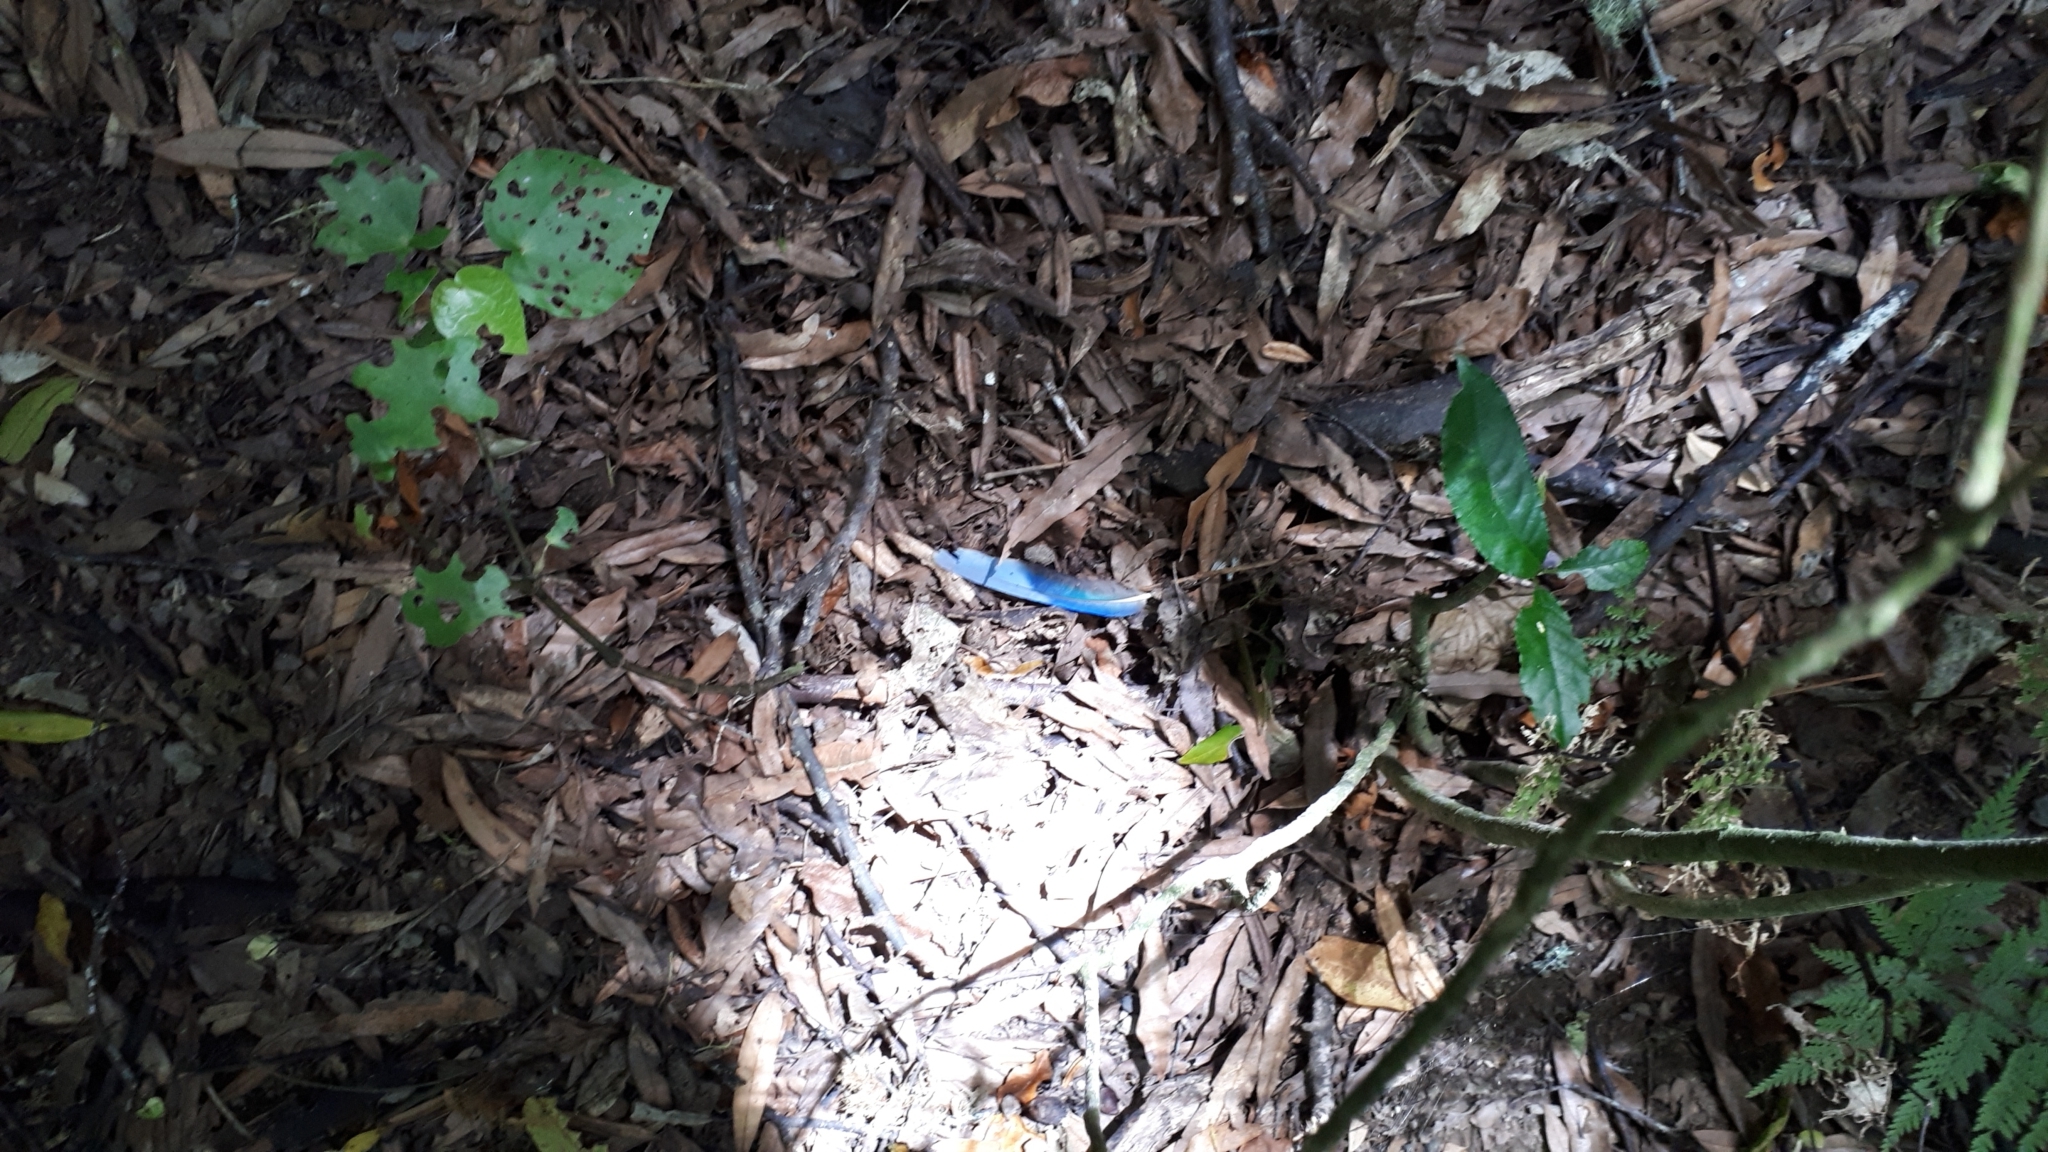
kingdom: Animalia
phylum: Chordata
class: Aves
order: Psittaciformes
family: Psittacidae
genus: Platycercus
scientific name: Platycercus eximius
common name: Eastern rosella
